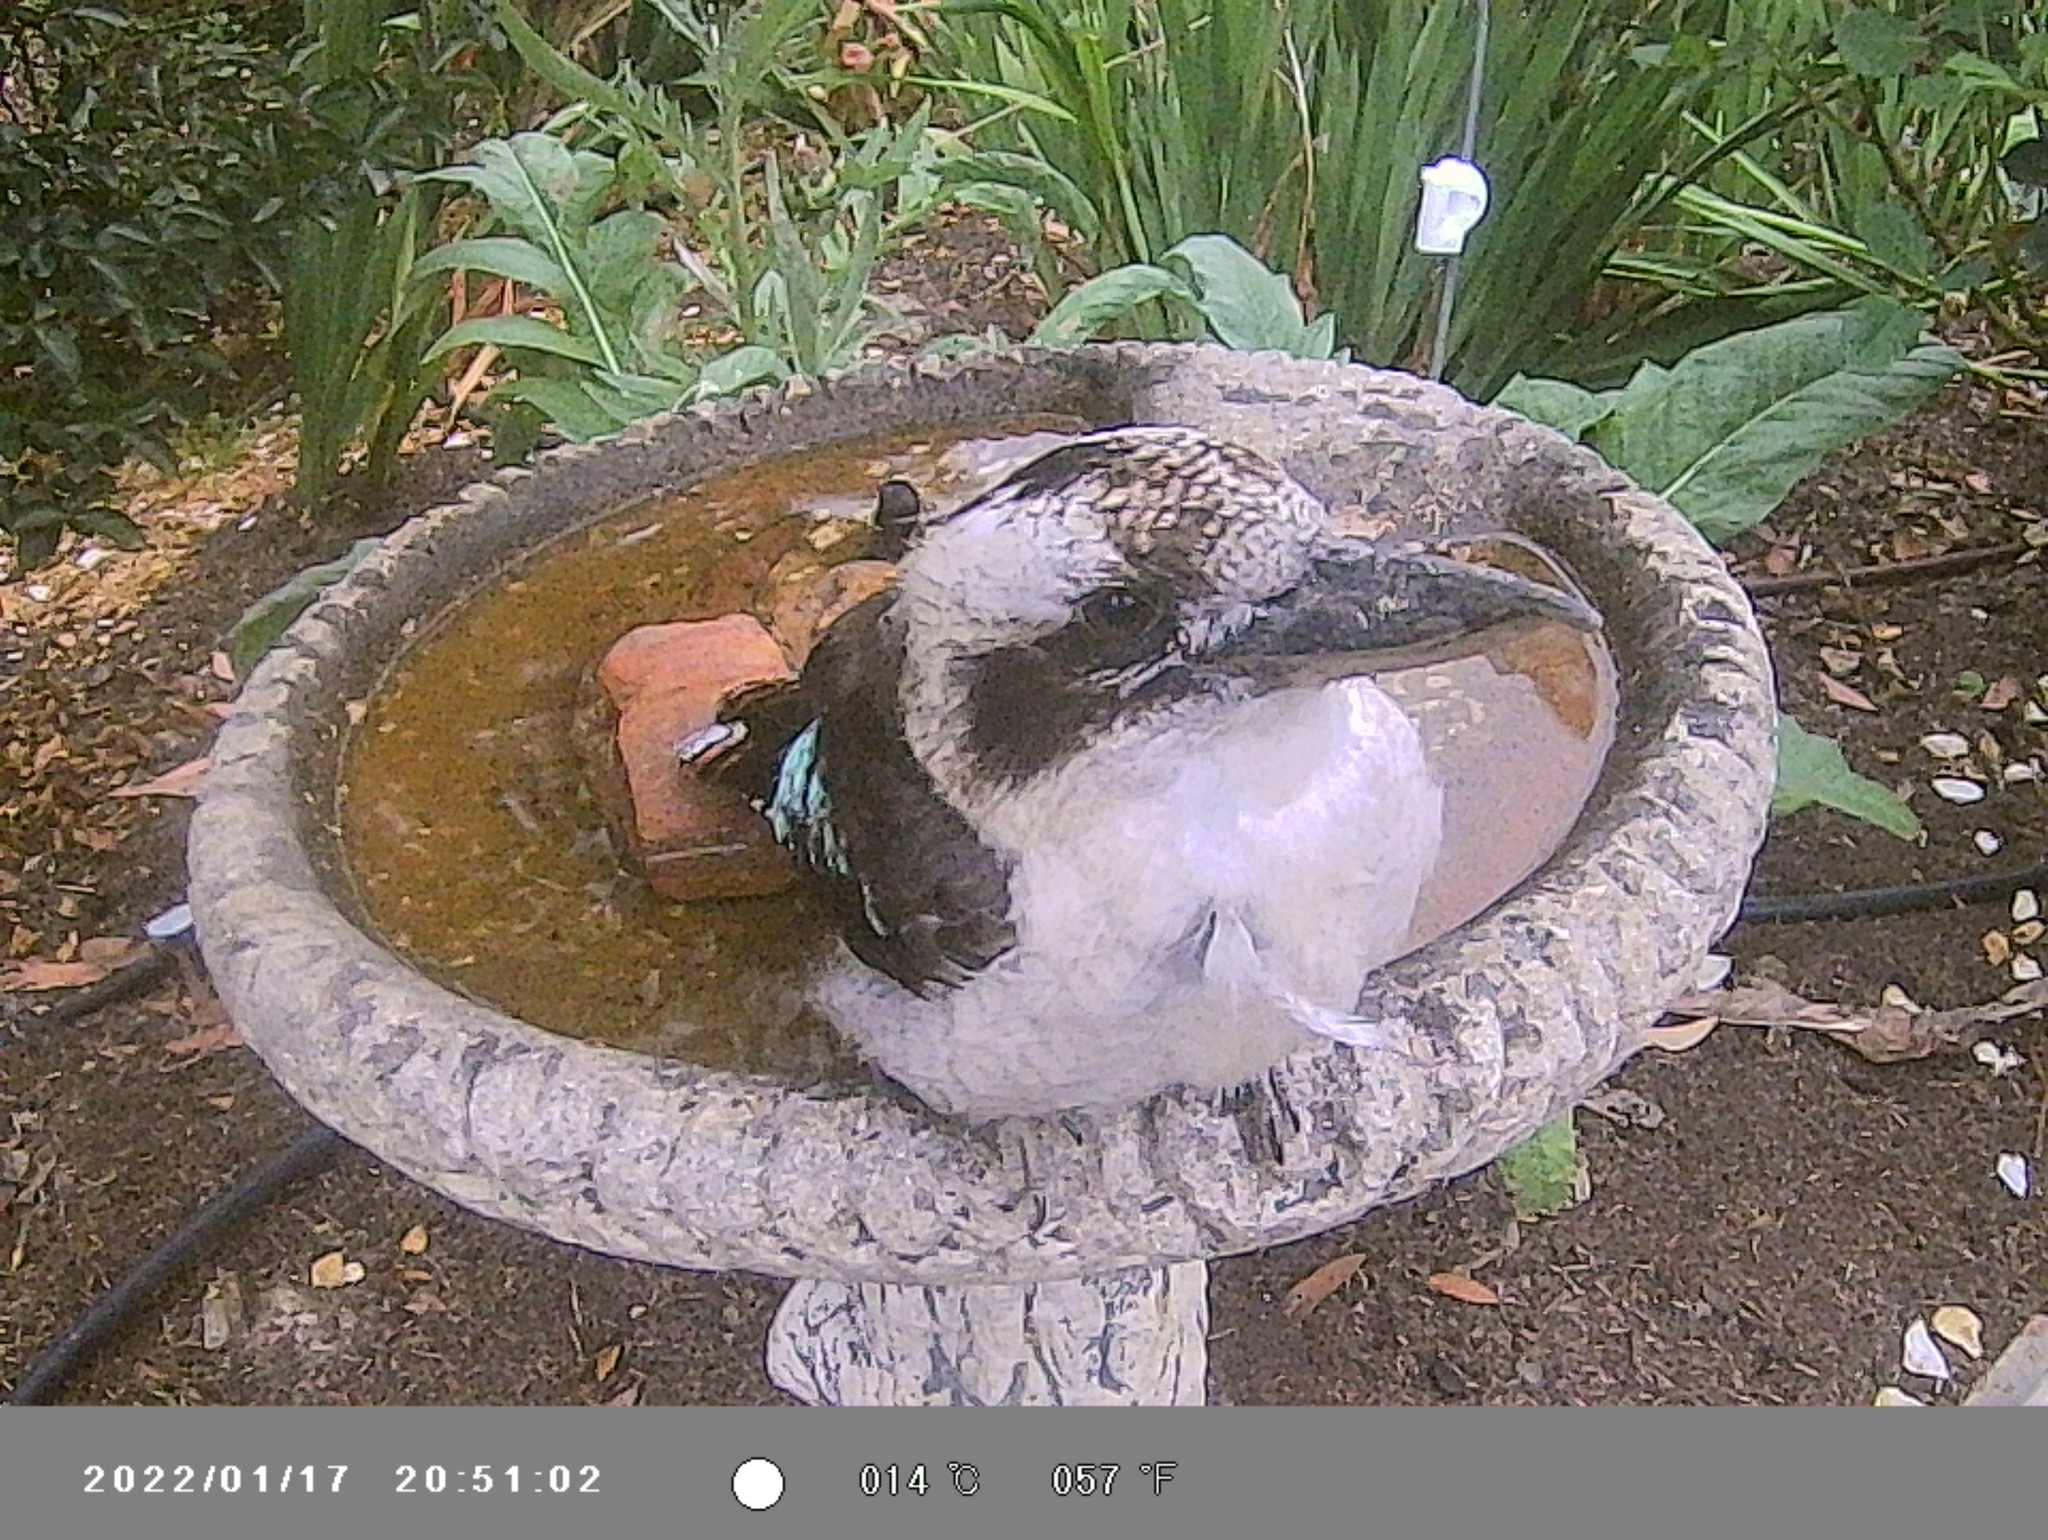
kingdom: Animalia
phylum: Chordata
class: Aves
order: Coraciiformes
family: Alcedinidae
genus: Dacelo
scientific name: Dacelo novaeguineae
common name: Laughing kookaburra
